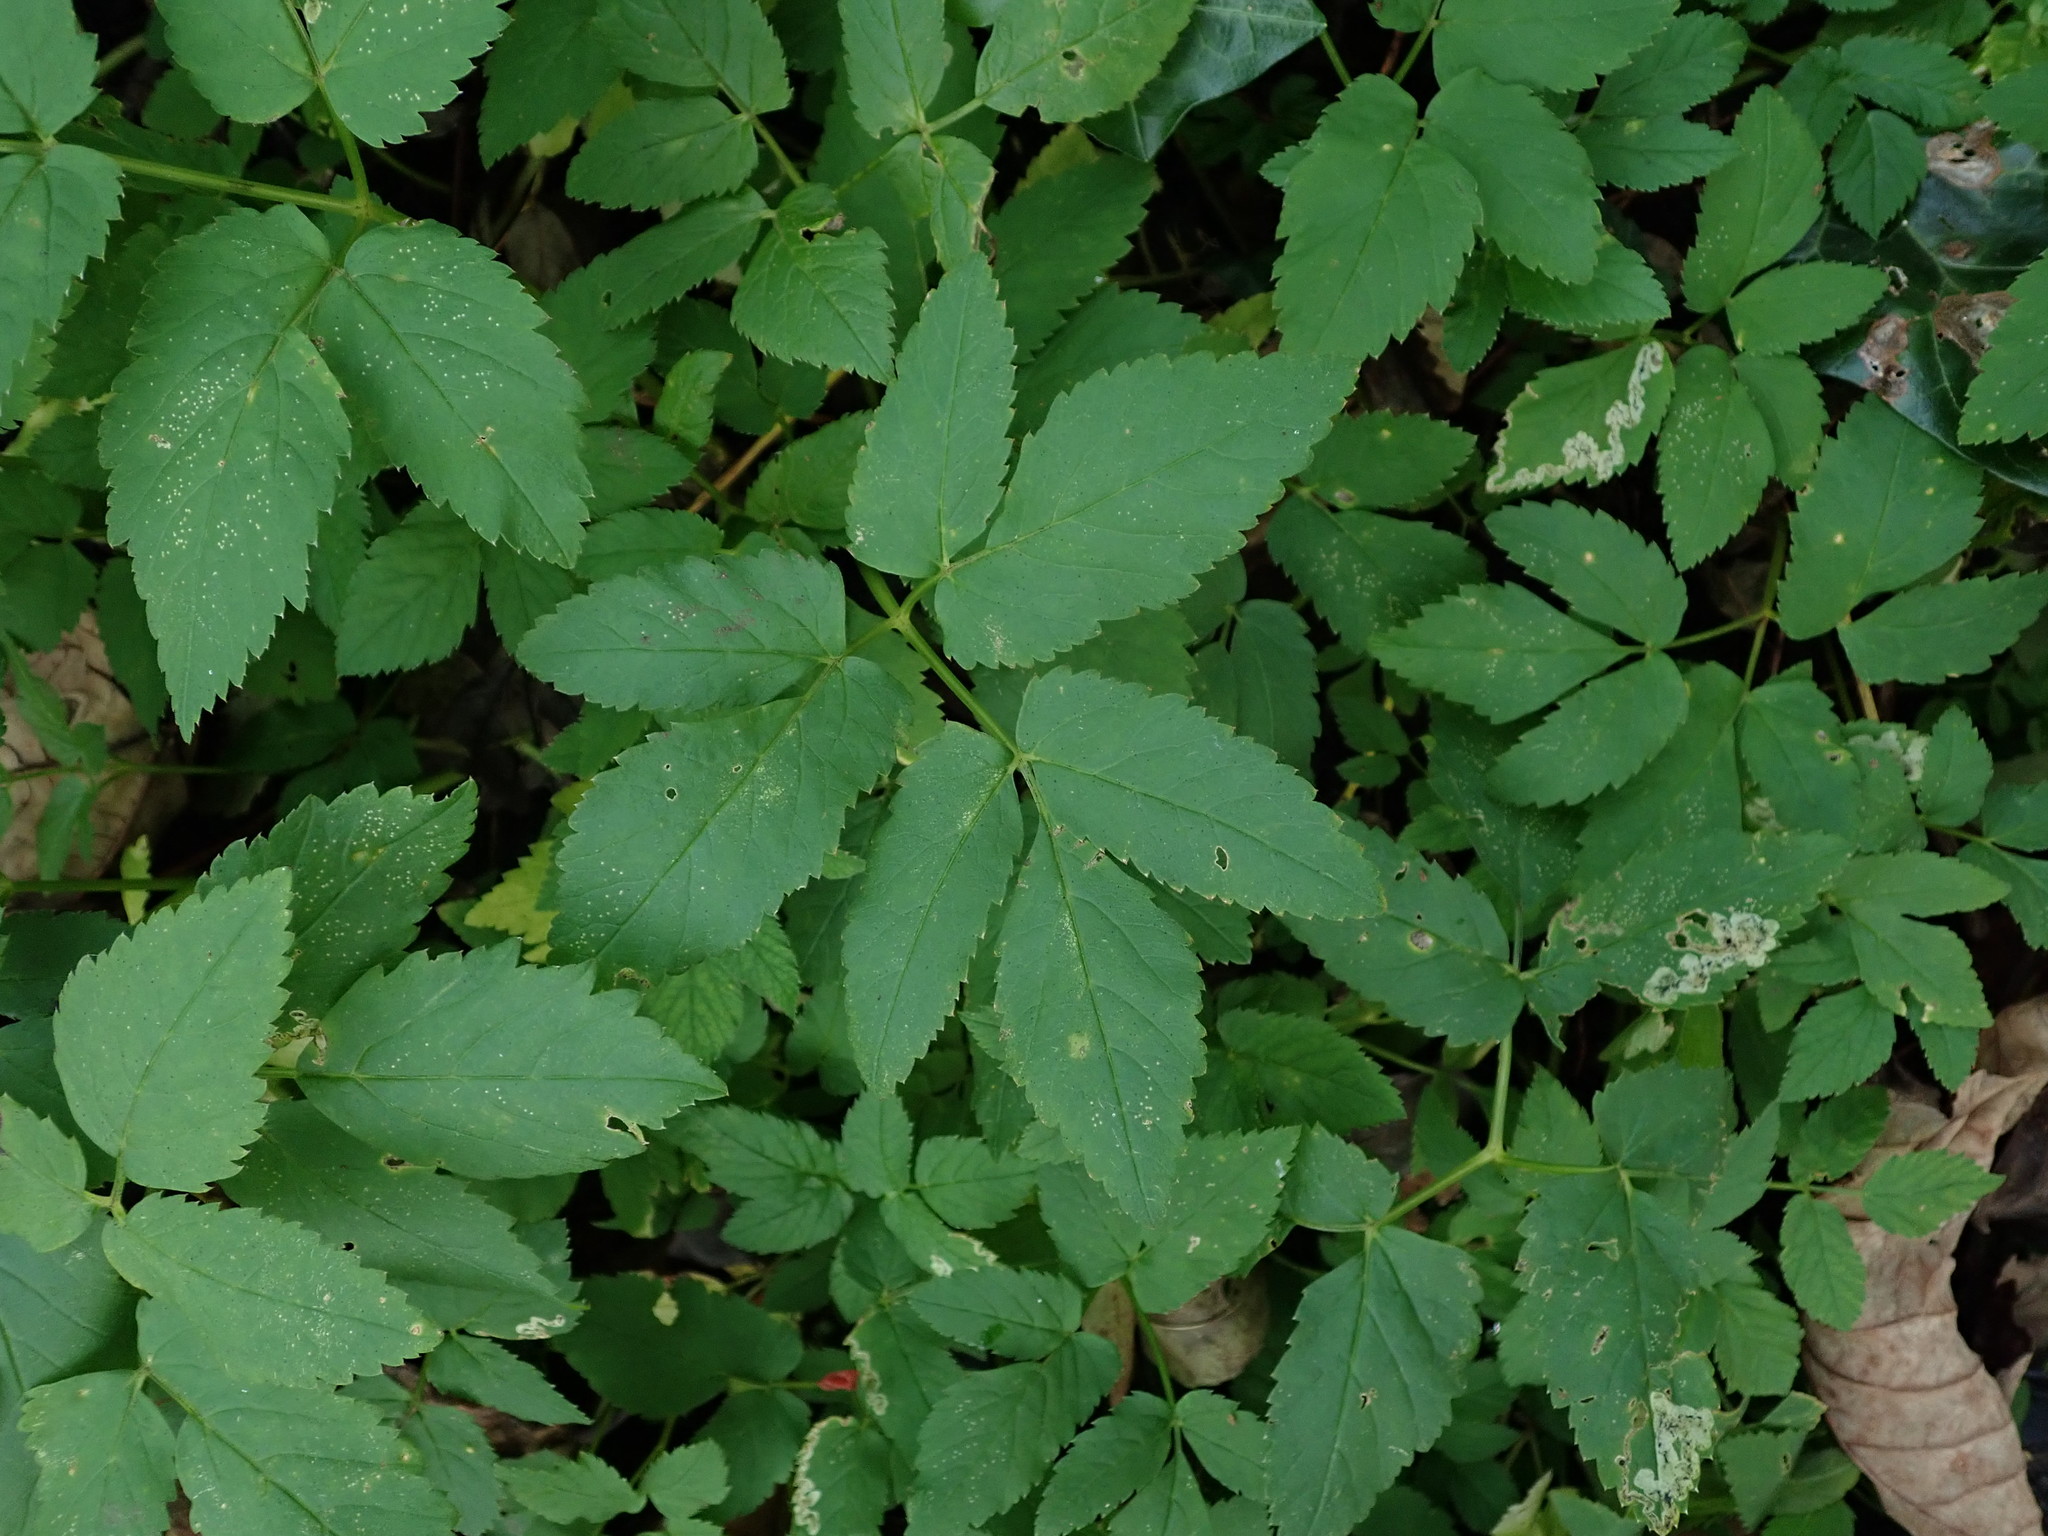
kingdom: Plantae
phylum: Tracheophyta
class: Magnoliopsida
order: Apiales
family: Apiaceae
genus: Aegopodium
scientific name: Aegopodium podagraria
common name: Ground-elder
